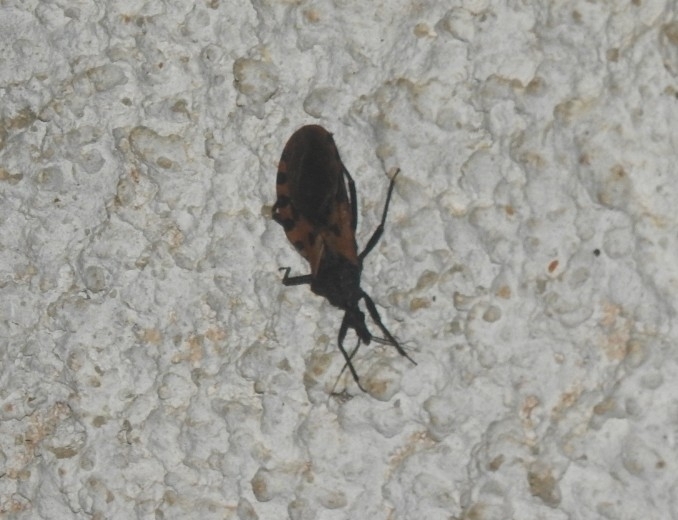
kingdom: Animalia
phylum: Arthropoda
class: Insecta
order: Hemiptera
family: Reduviidae
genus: Meccus
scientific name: Meccus dimidiatus
